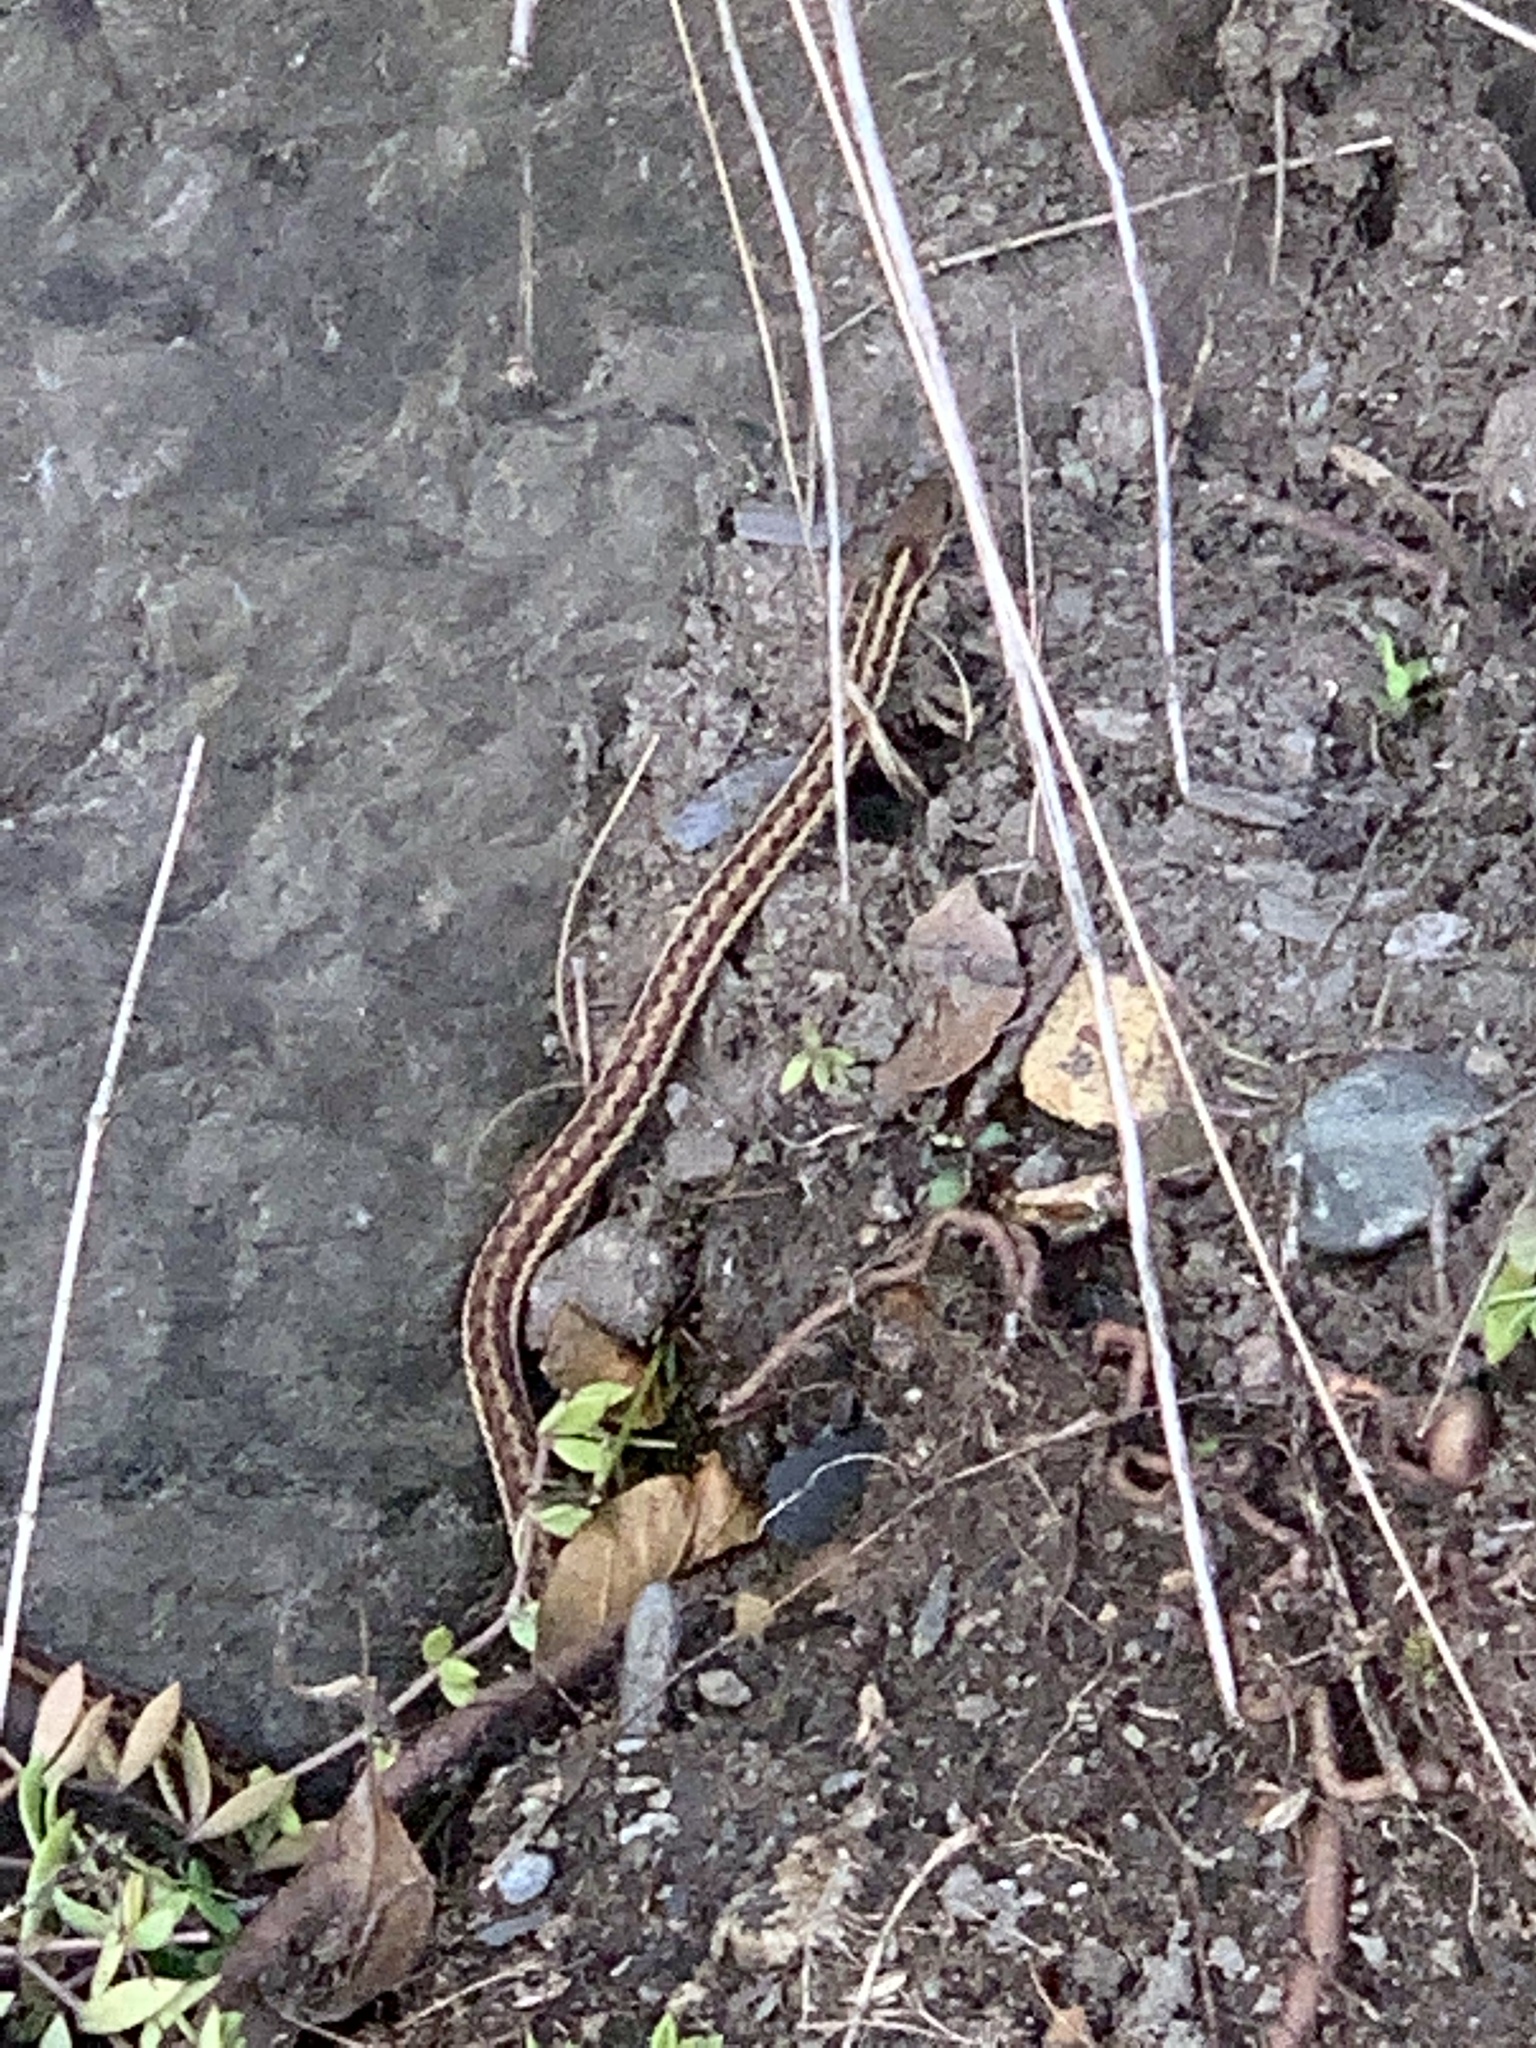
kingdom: Animalia
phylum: Chordata
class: Squamata
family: Colubridae
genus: Thamnophis
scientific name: Thamnophis sirtalis
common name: Common garter snake
